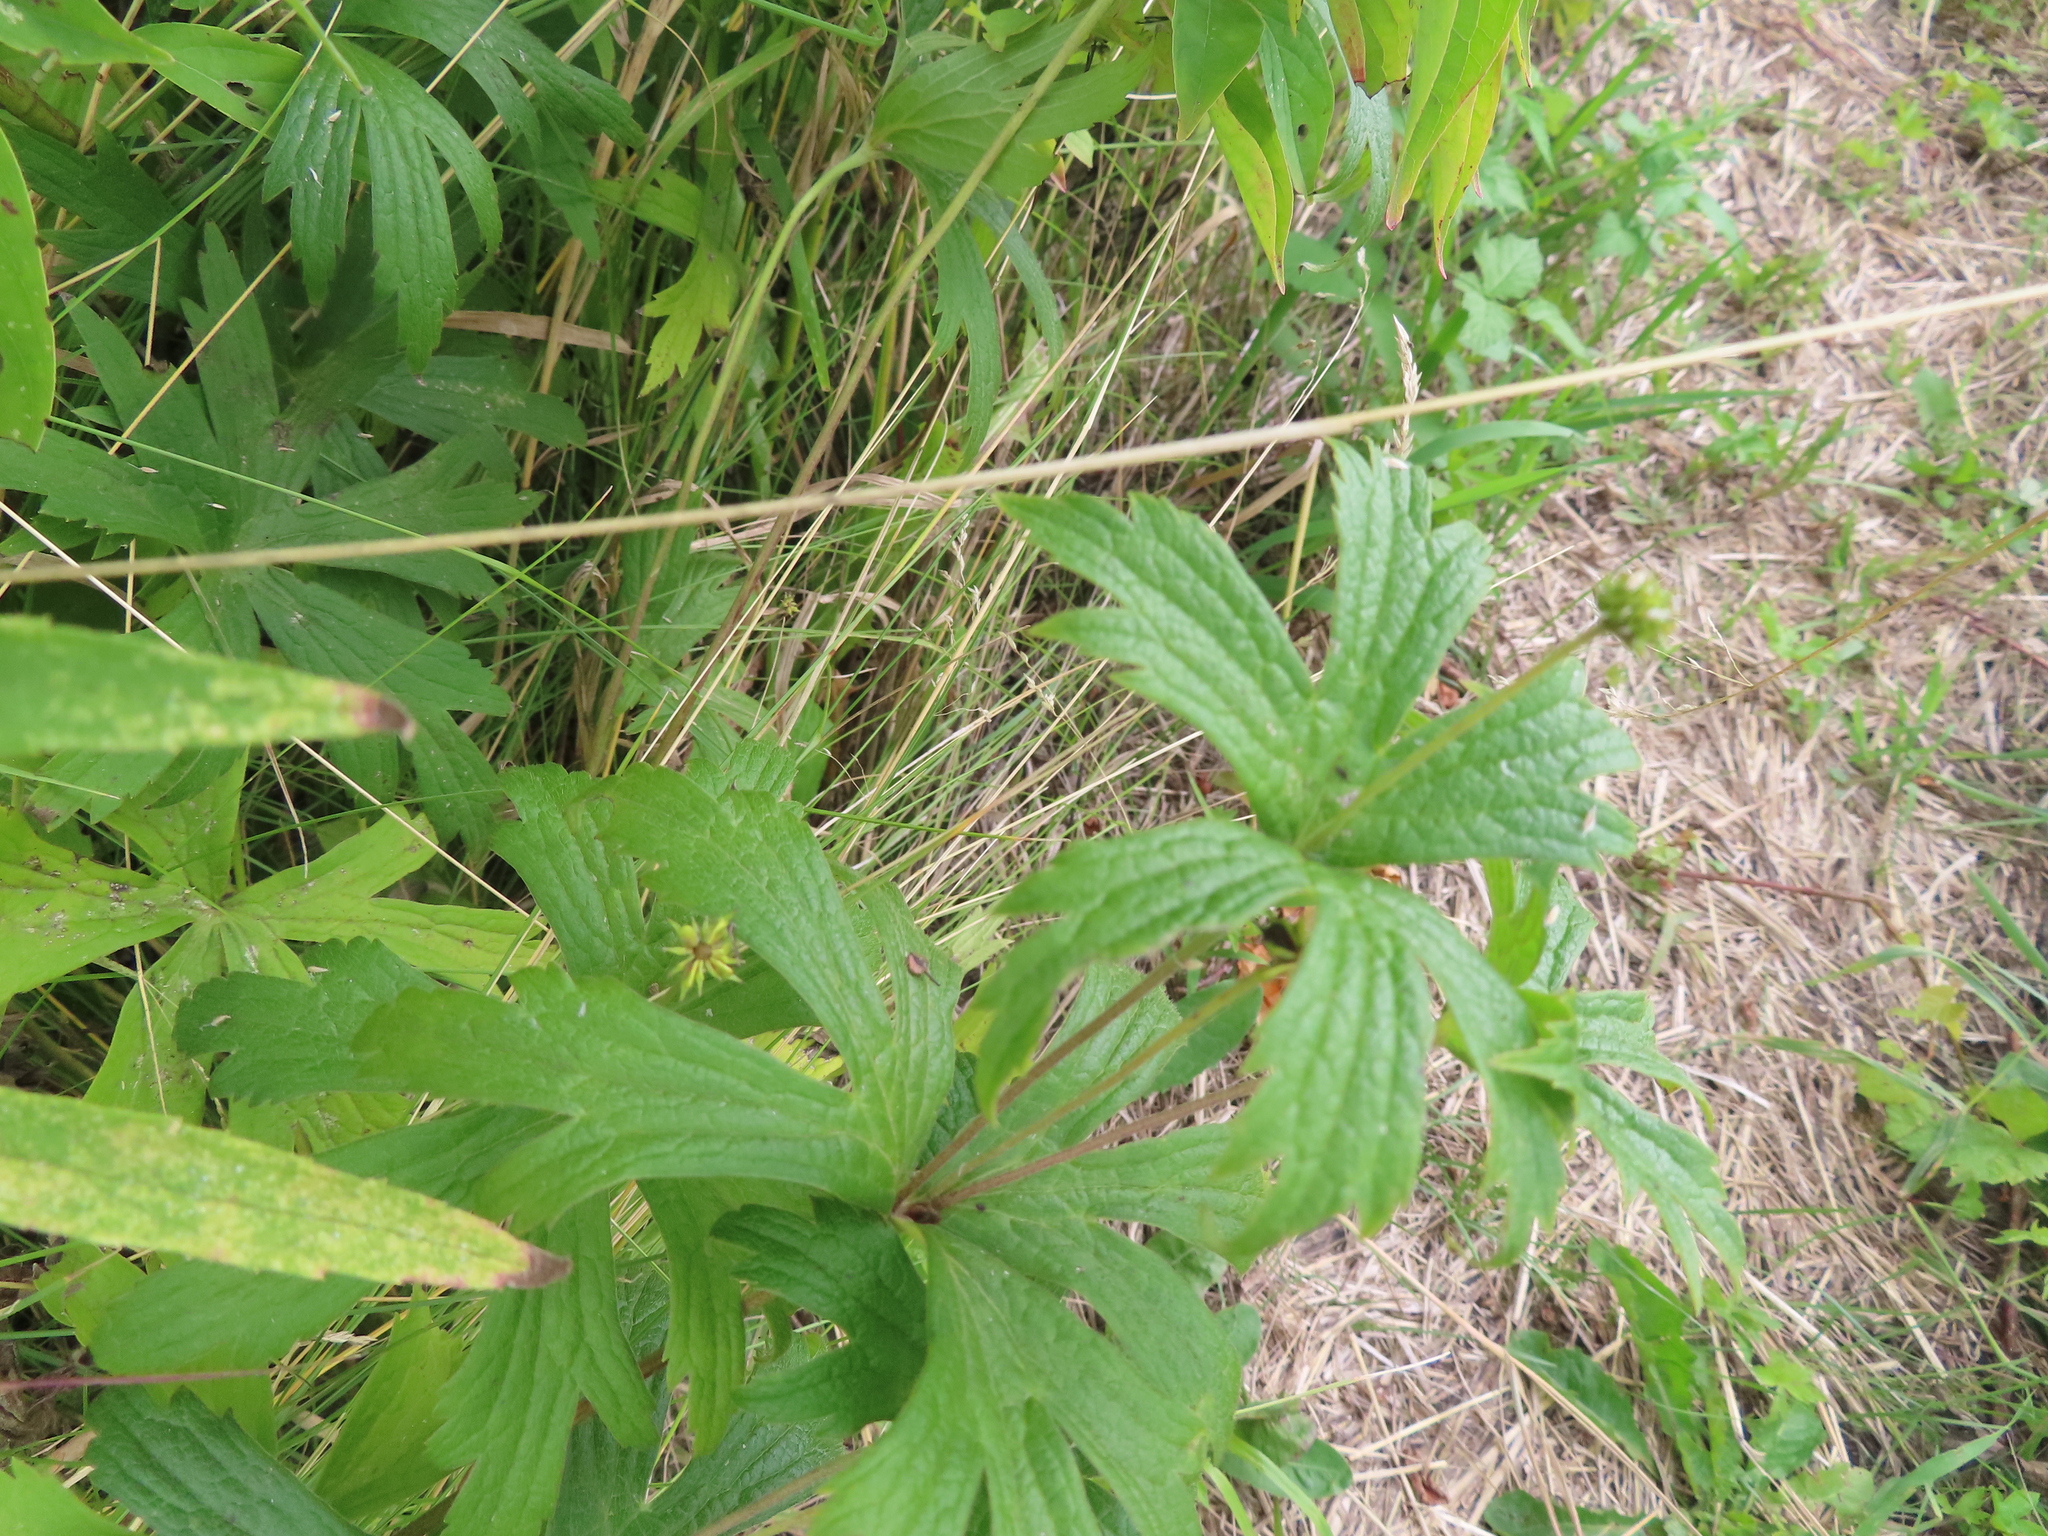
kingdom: Plantae
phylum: Tracheophyta
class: Magnoliopsida
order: Ranunculales
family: Ranunculaceae
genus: Anemonastrum
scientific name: Anemonastrum canadense
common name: Canada anemone
